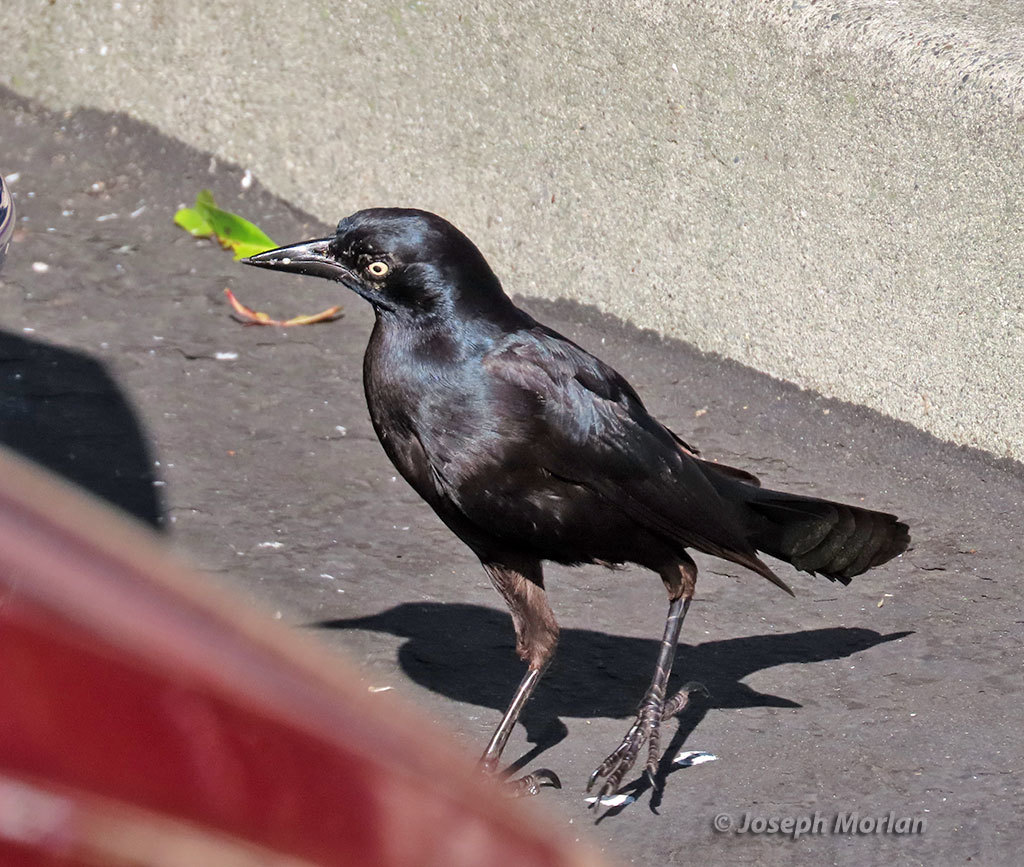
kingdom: Animalia
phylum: Chordata
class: Aves
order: Passeriformes
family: Icteridae
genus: Quiscalus
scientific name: Quiscalus mexicanus
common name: Great-tailed grackle
